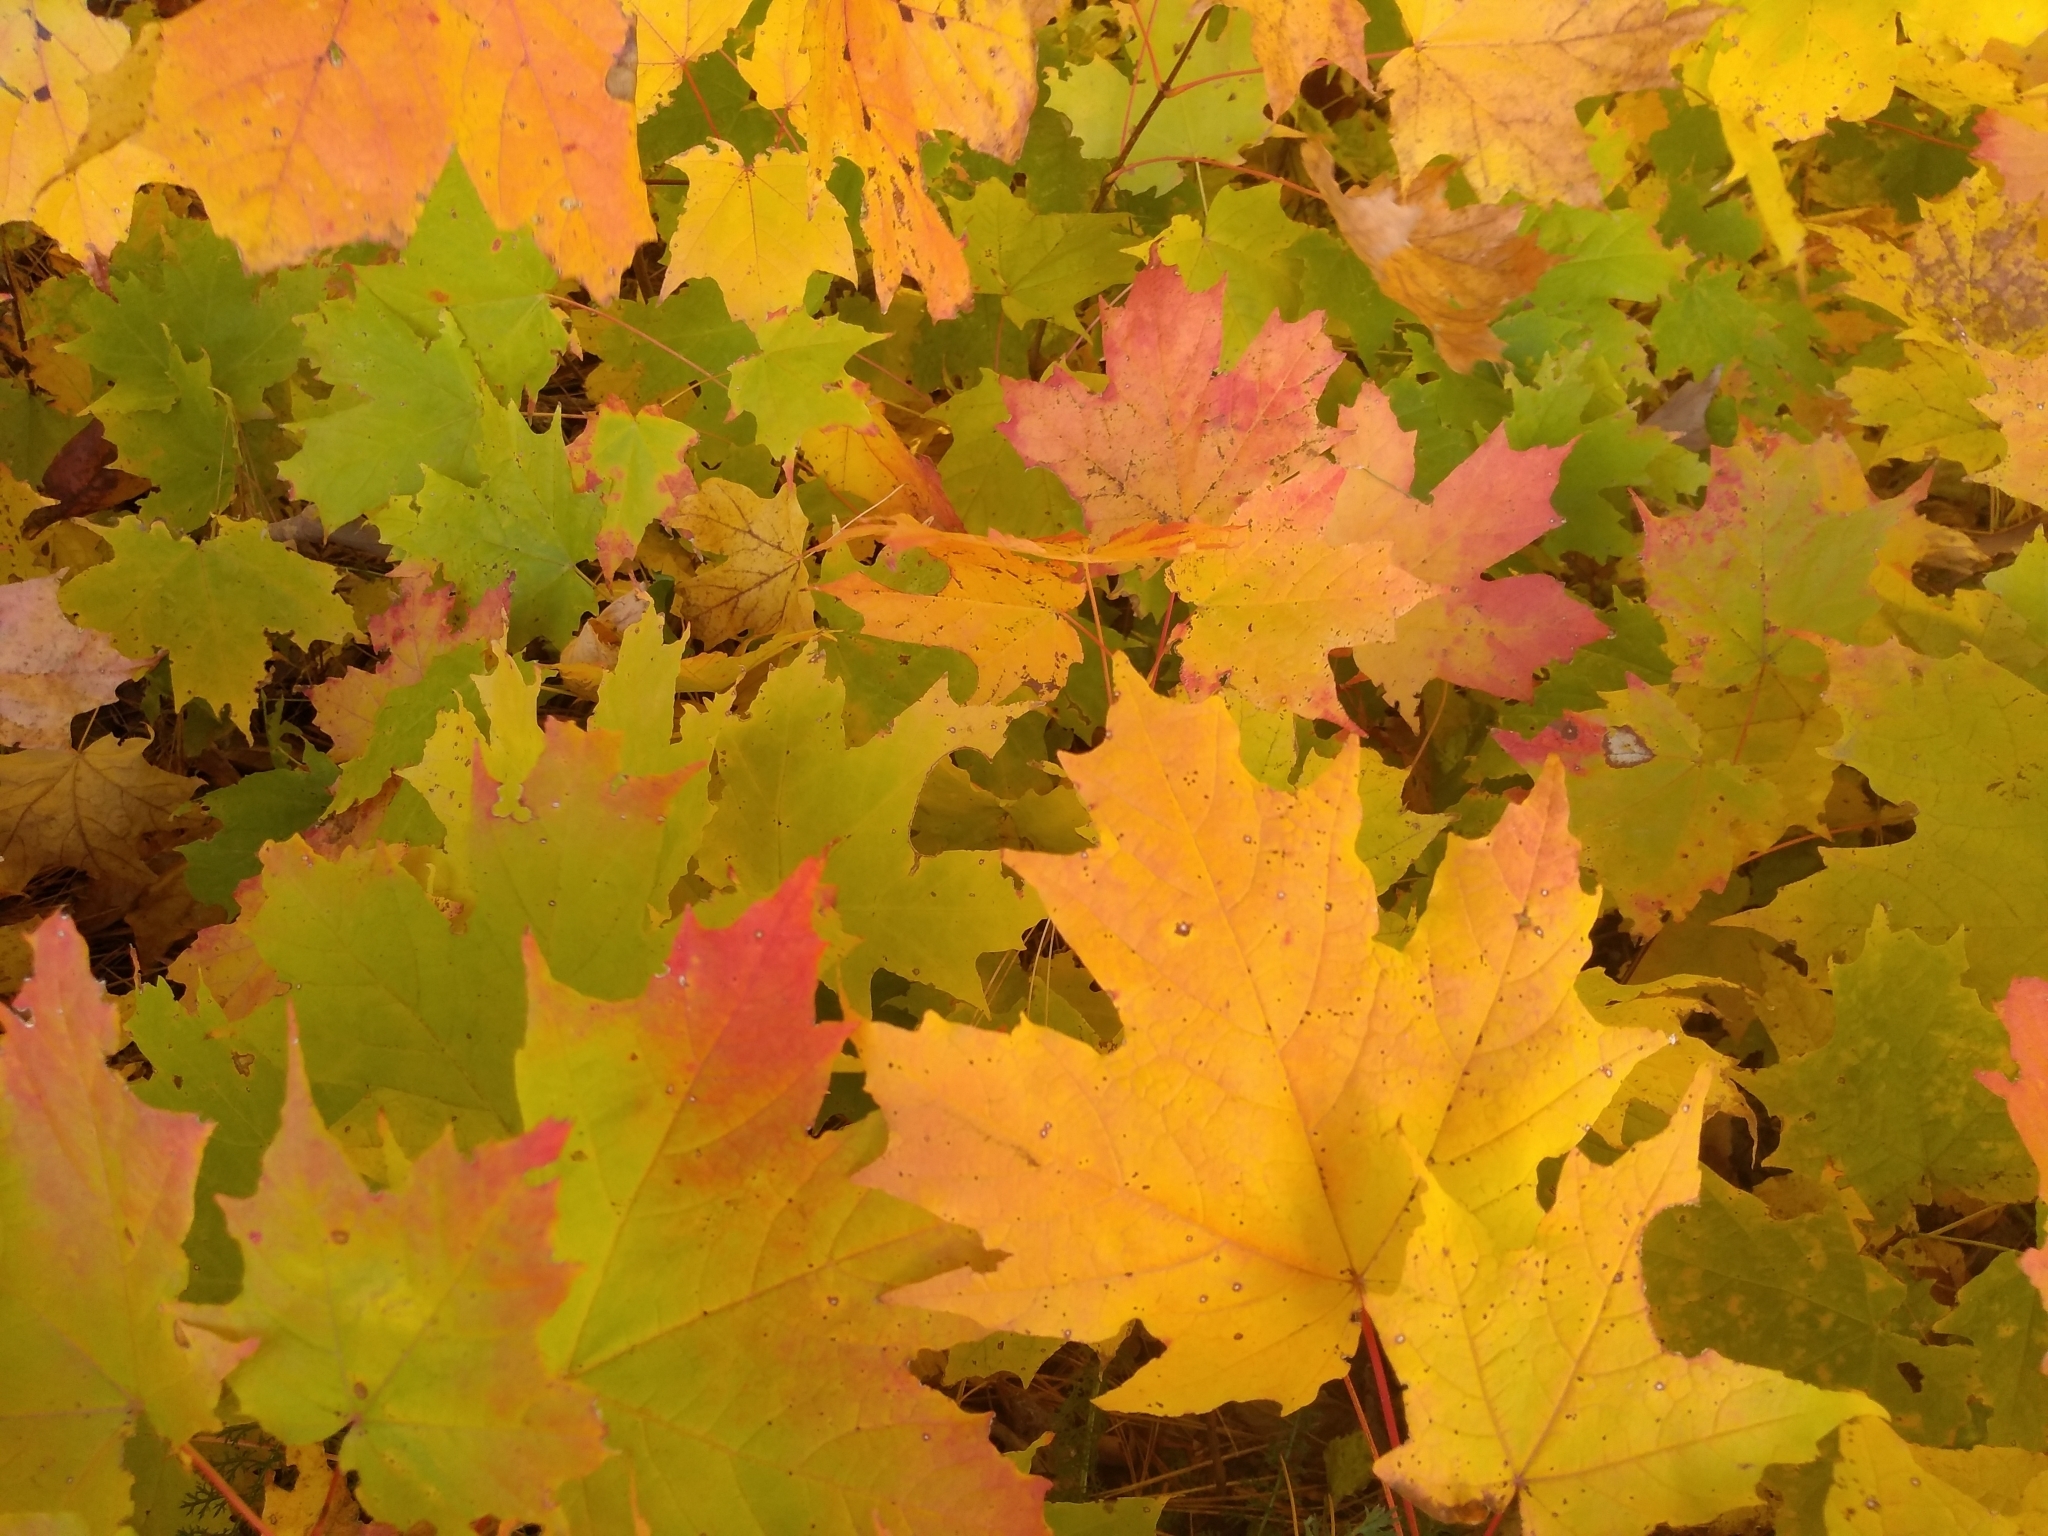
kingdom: Plantae
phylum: Tracheophyta
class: Magnoliopsida
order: Sapindales
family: Sapindaceae
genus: Acer
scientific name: Acer saccharum
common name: Sugar maple
